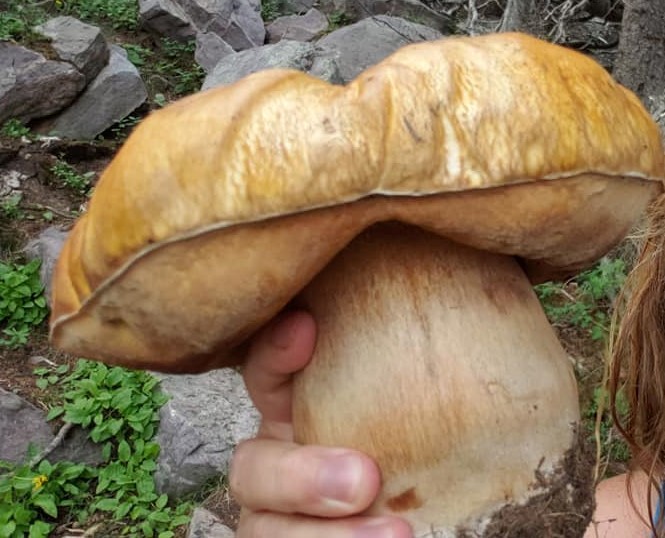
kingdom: Fungi
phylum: Basidiomycota
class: Agaricomycetes
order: Boletales
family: Boletaceae
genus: Boletus
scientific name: Boletus edulis
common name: Cep
